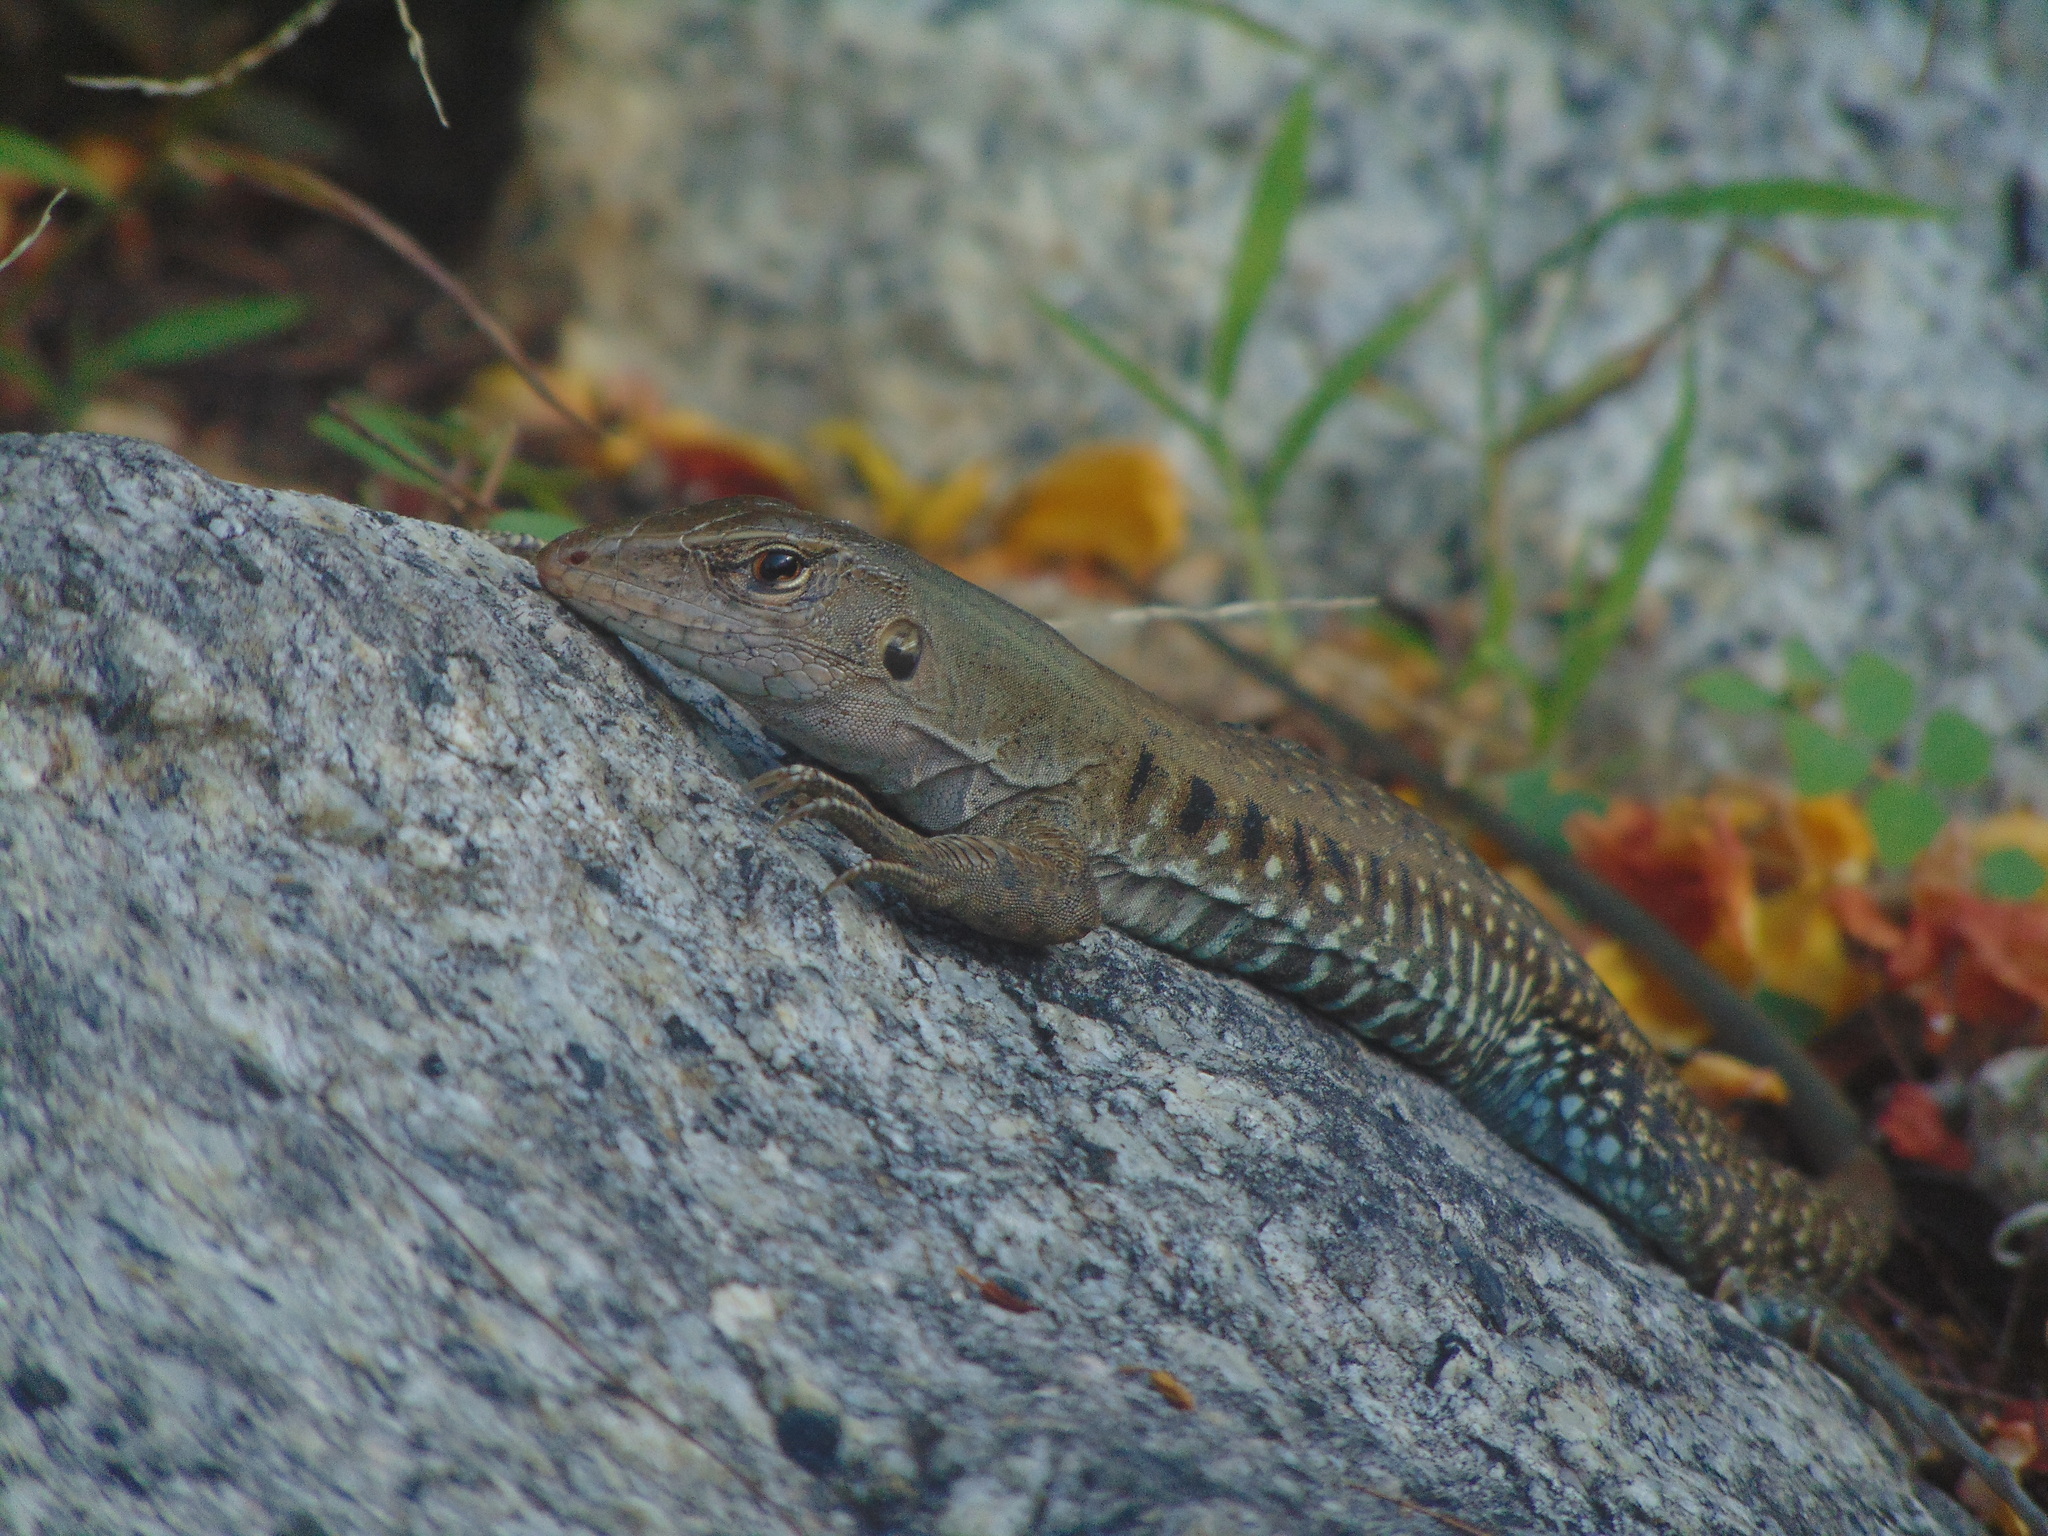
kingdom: Animalia
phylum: Chordata
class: Squamata
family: Teiidae
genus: Pholidoscelis
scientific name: Pholidoscelis exsul
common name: Common puerto rican ameiva
